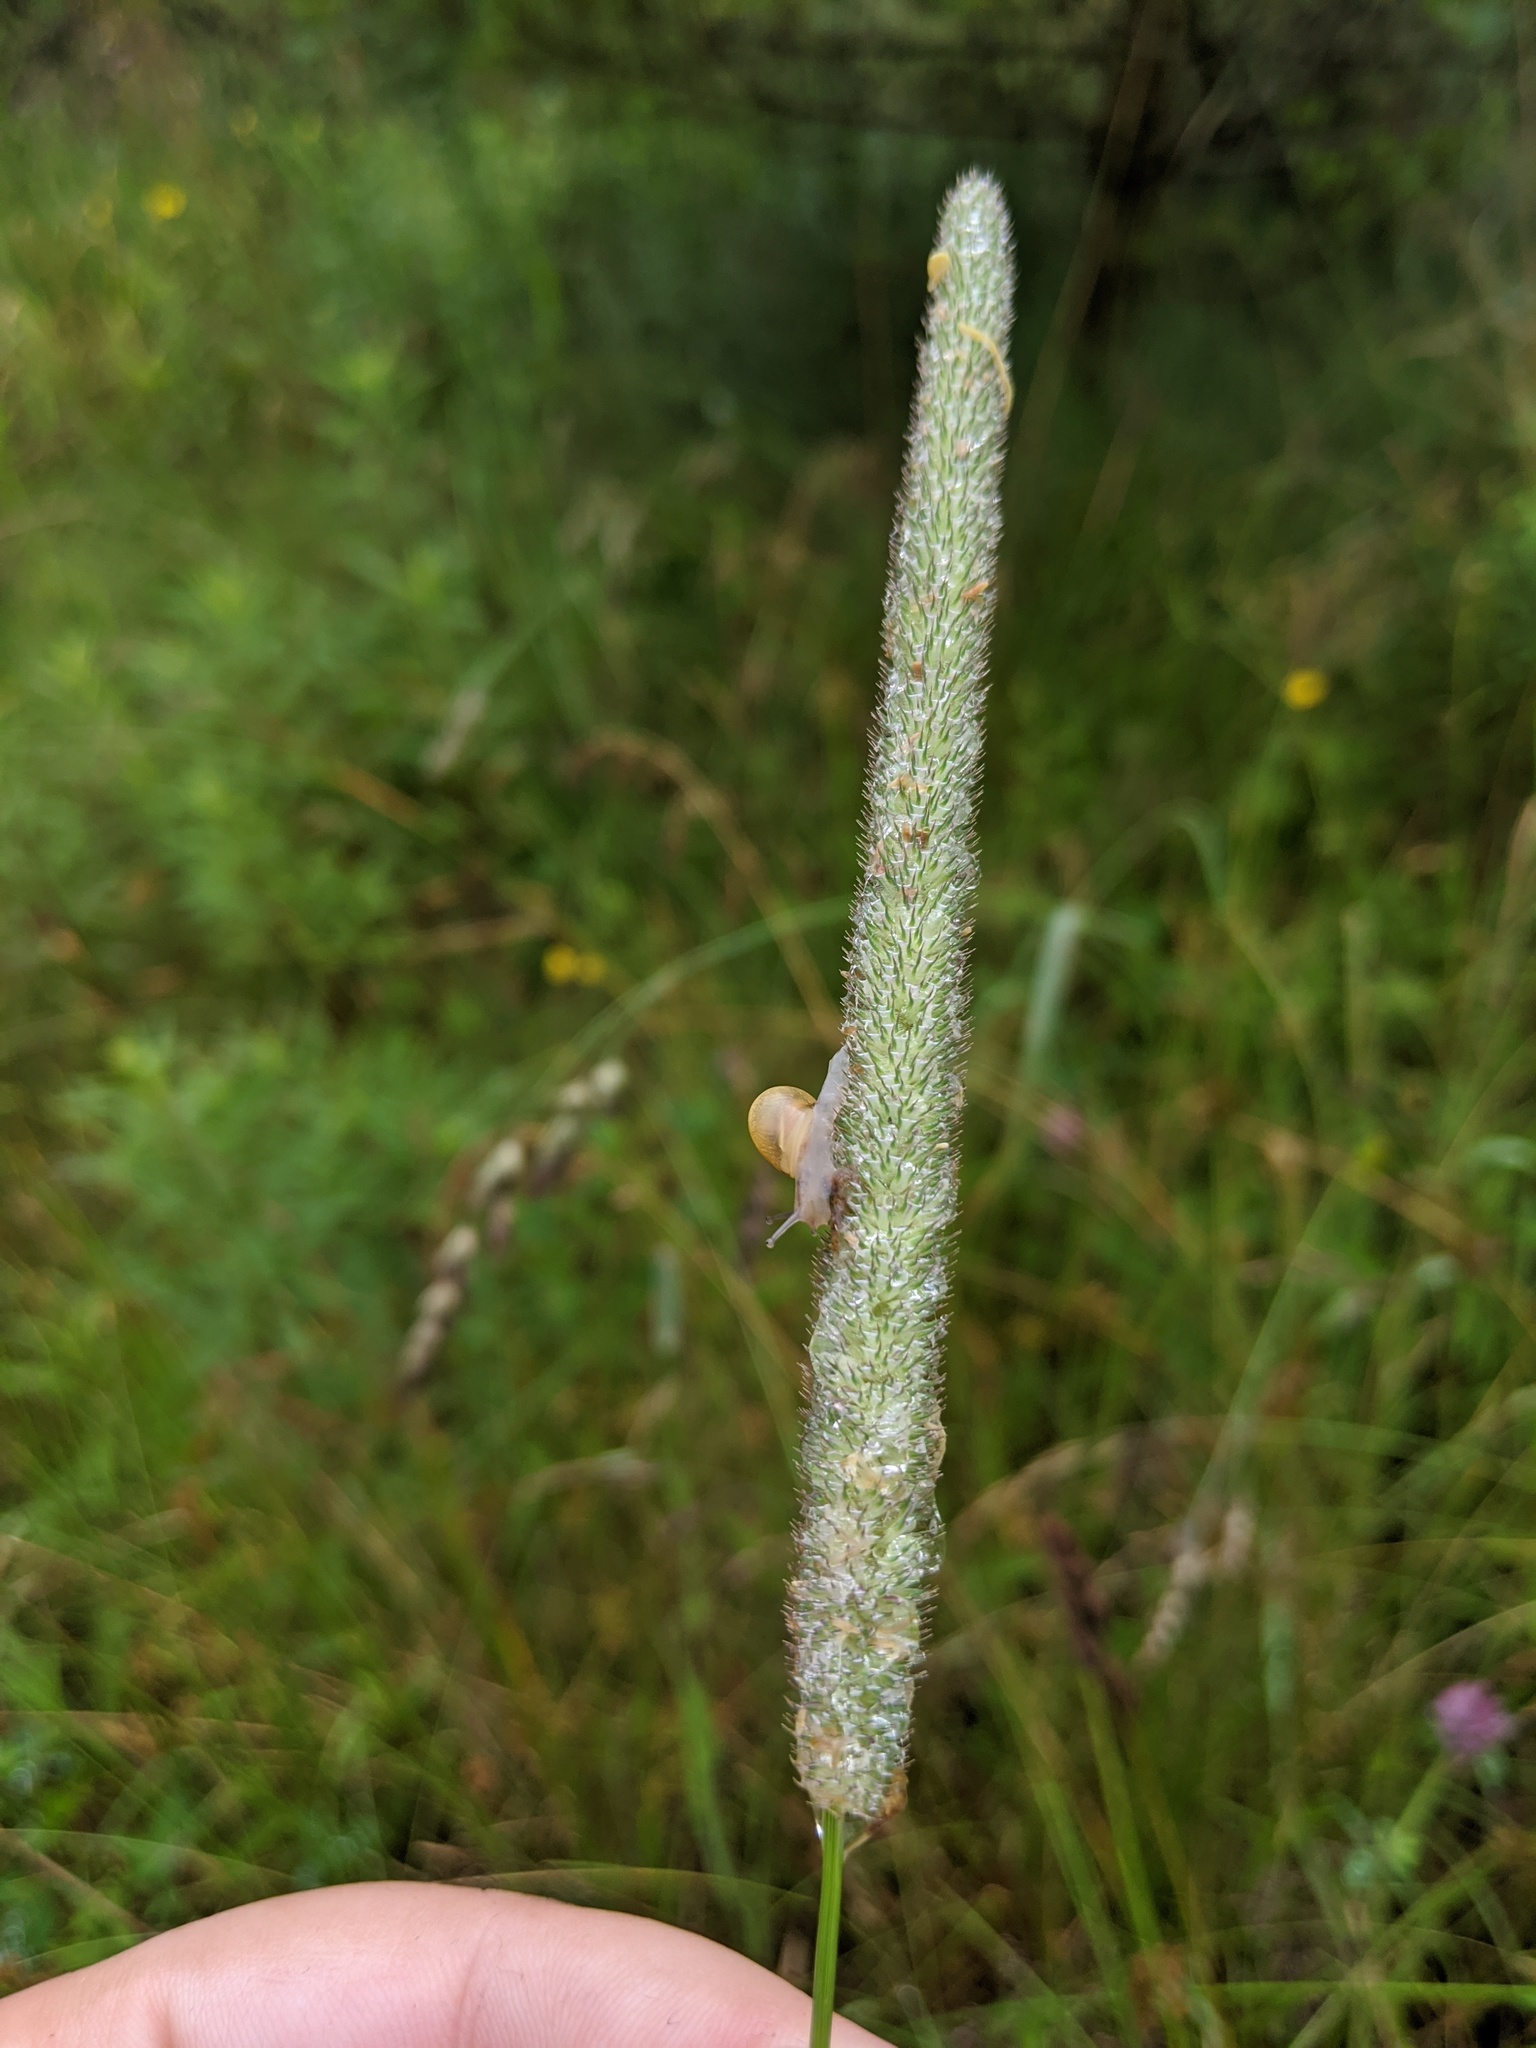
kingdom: Plantae
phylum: Tracheophyta
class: Liliopsida
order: Poales
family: Poaceae
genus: Phleum
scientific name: Phleum pratense
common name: Timothy grass
